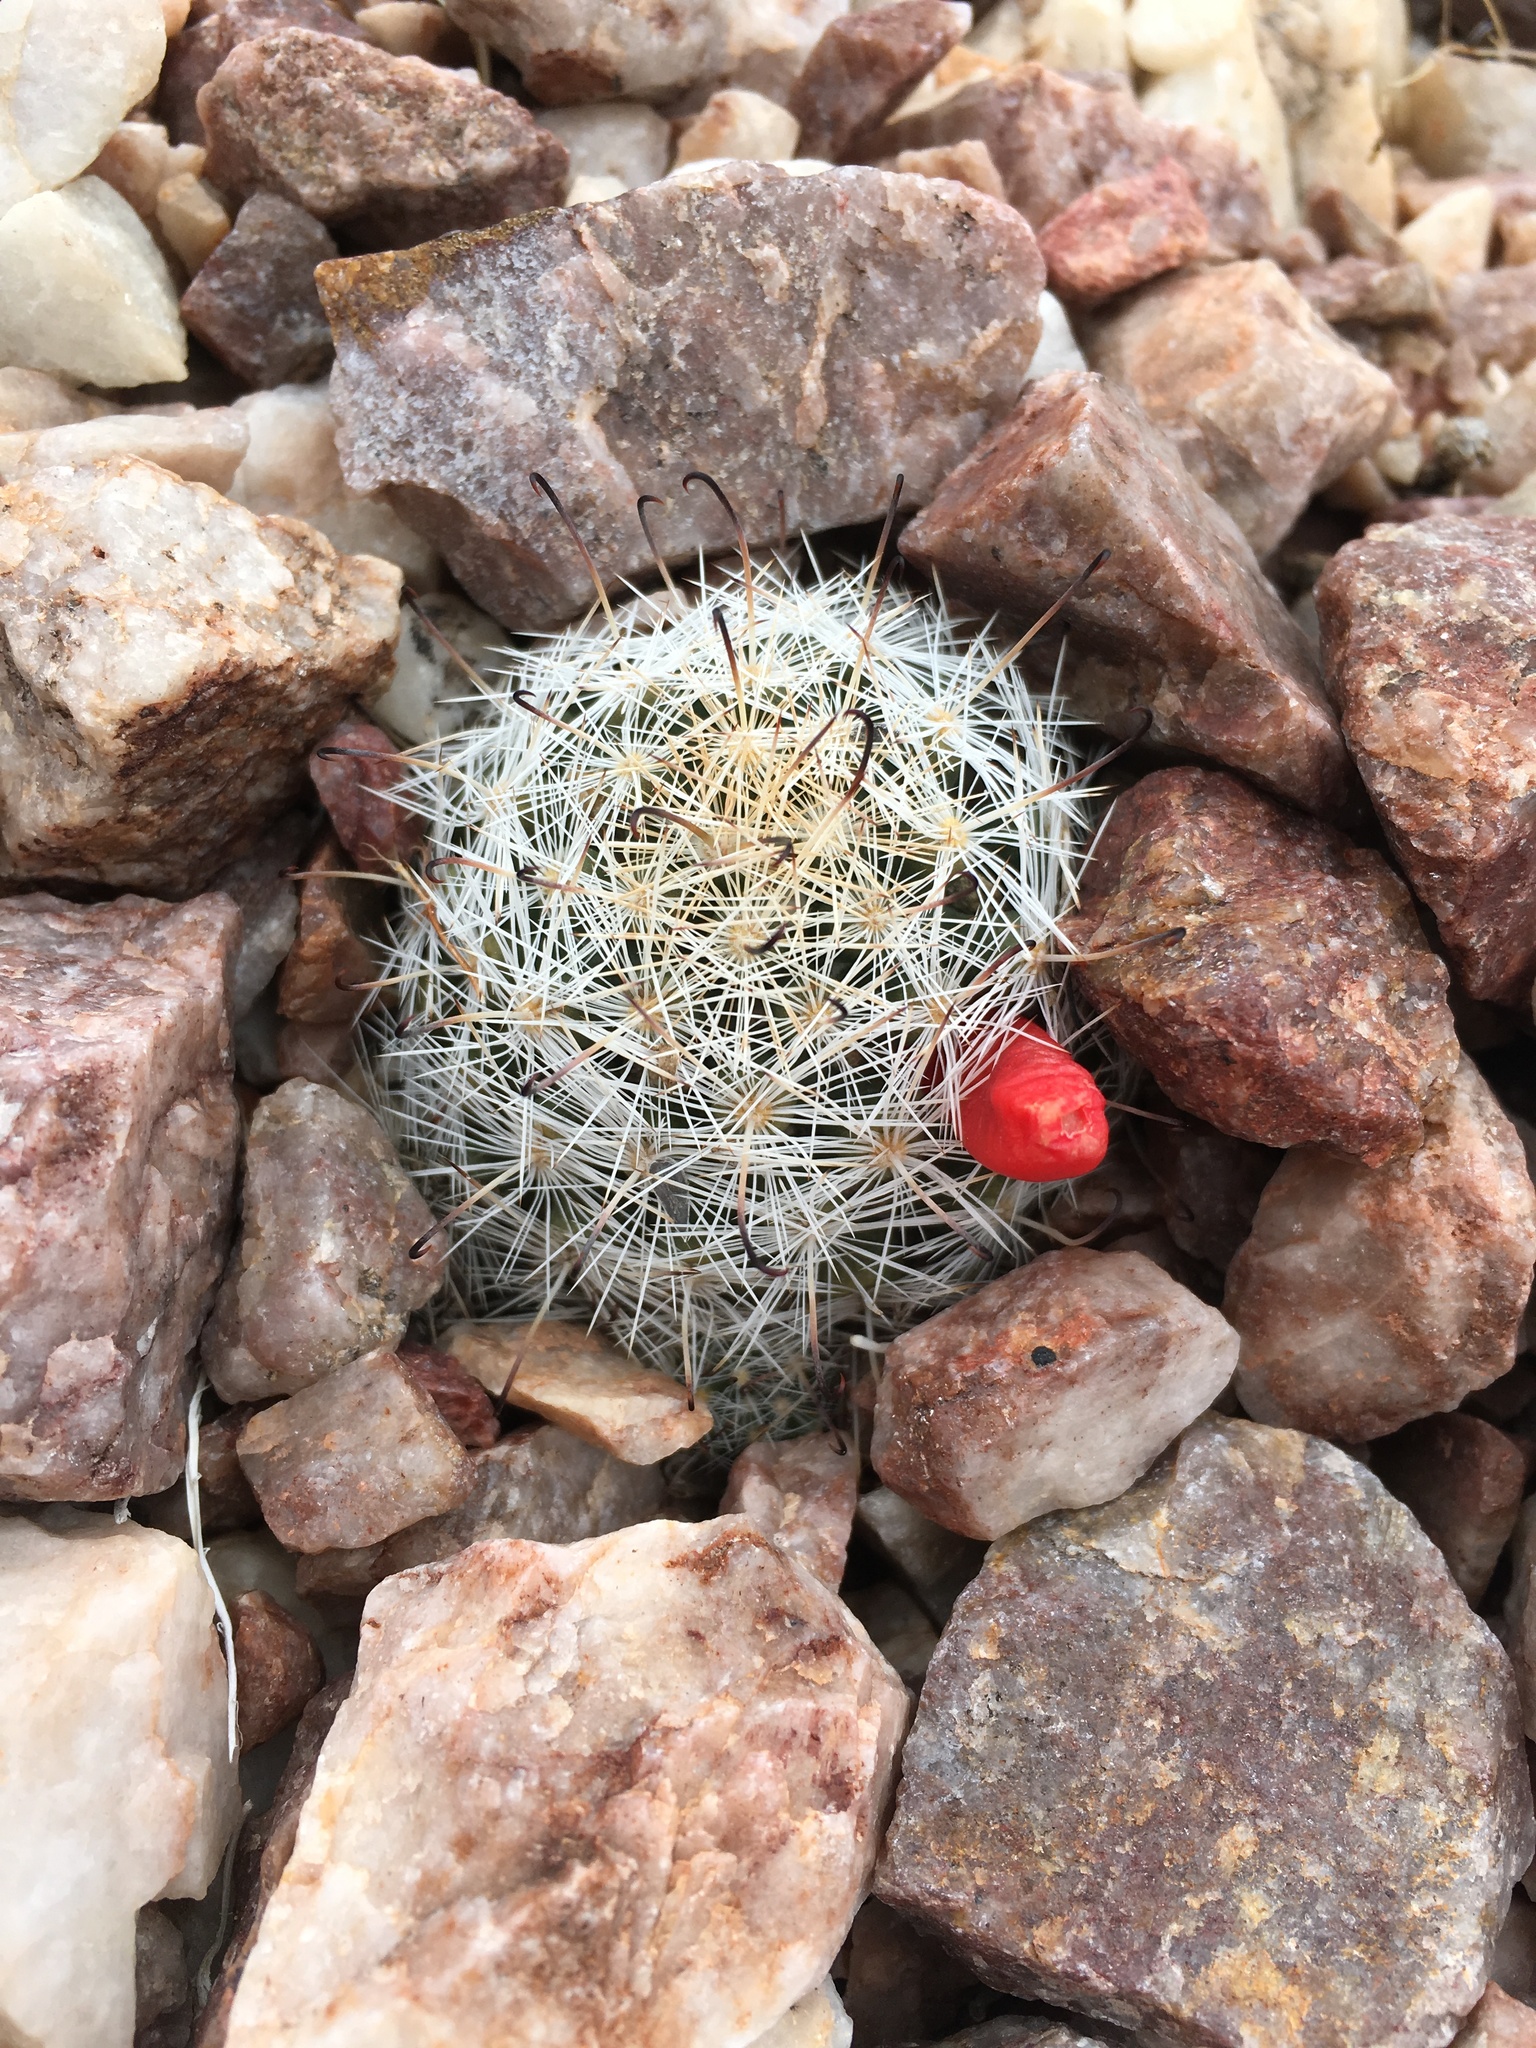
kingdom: Plantae
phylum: Tracheophyta
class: Magnoliopsida
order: Caryophyllales
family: Cactaceae
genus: Cochemiea
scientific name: Cochemiea tetrancistra
